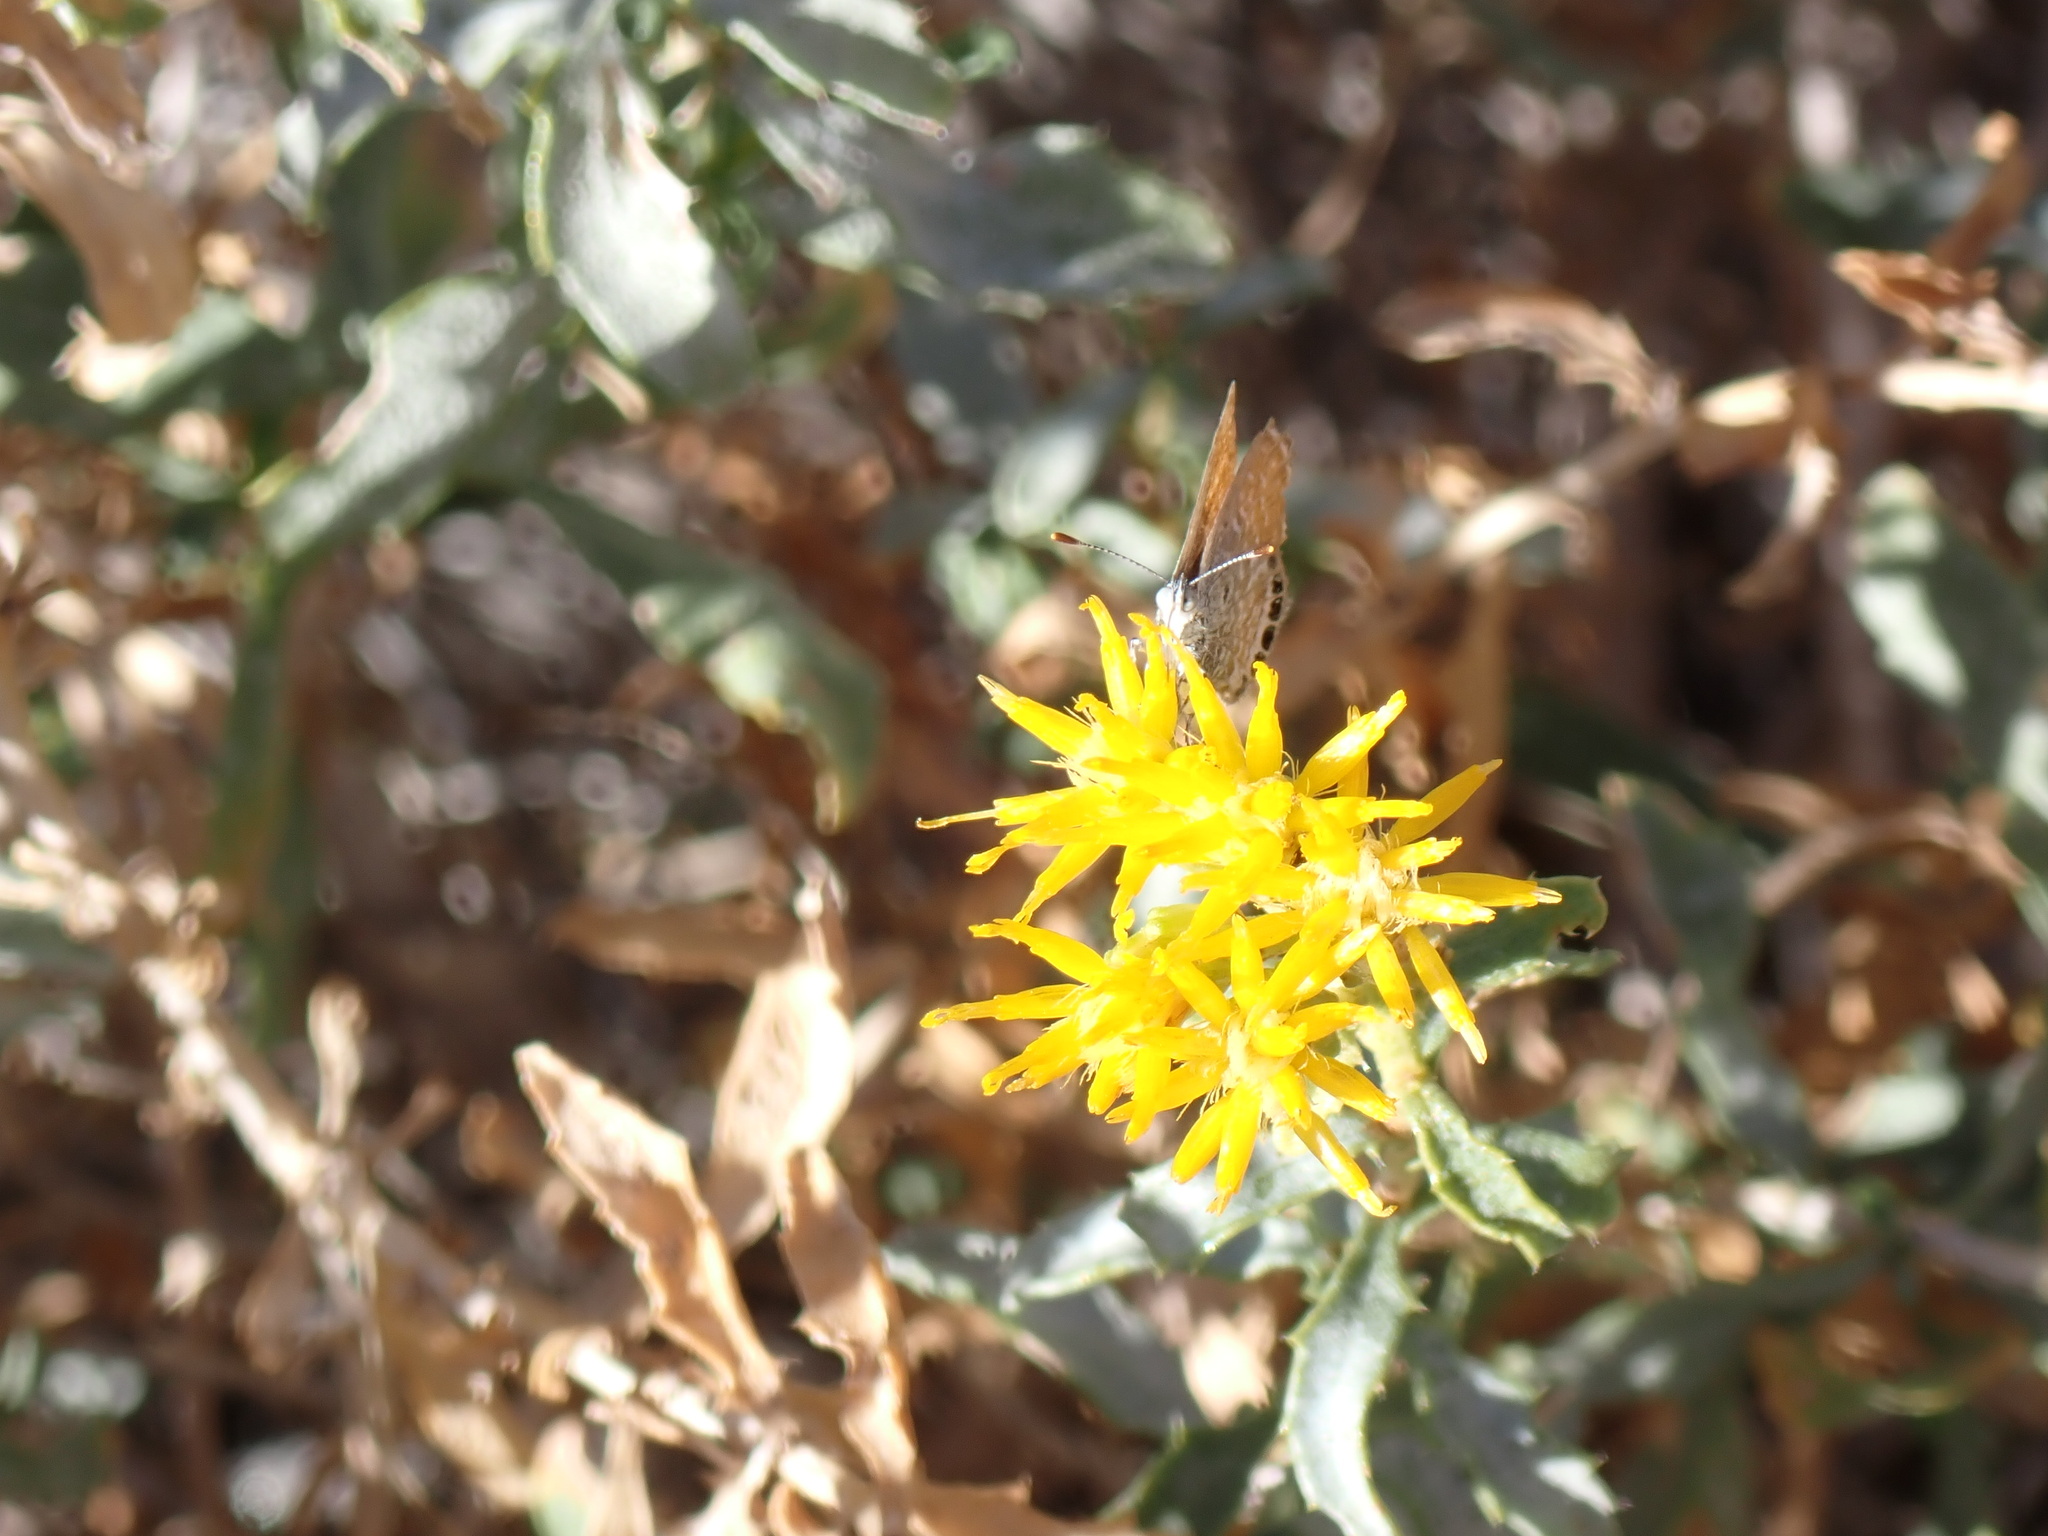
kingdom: Animalia
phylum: Arthropoda
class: Insecta
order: Lepidoptera
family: Lycaenidae
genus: Brephidium
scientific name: Brephidium exilis
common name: Pygmy blue
